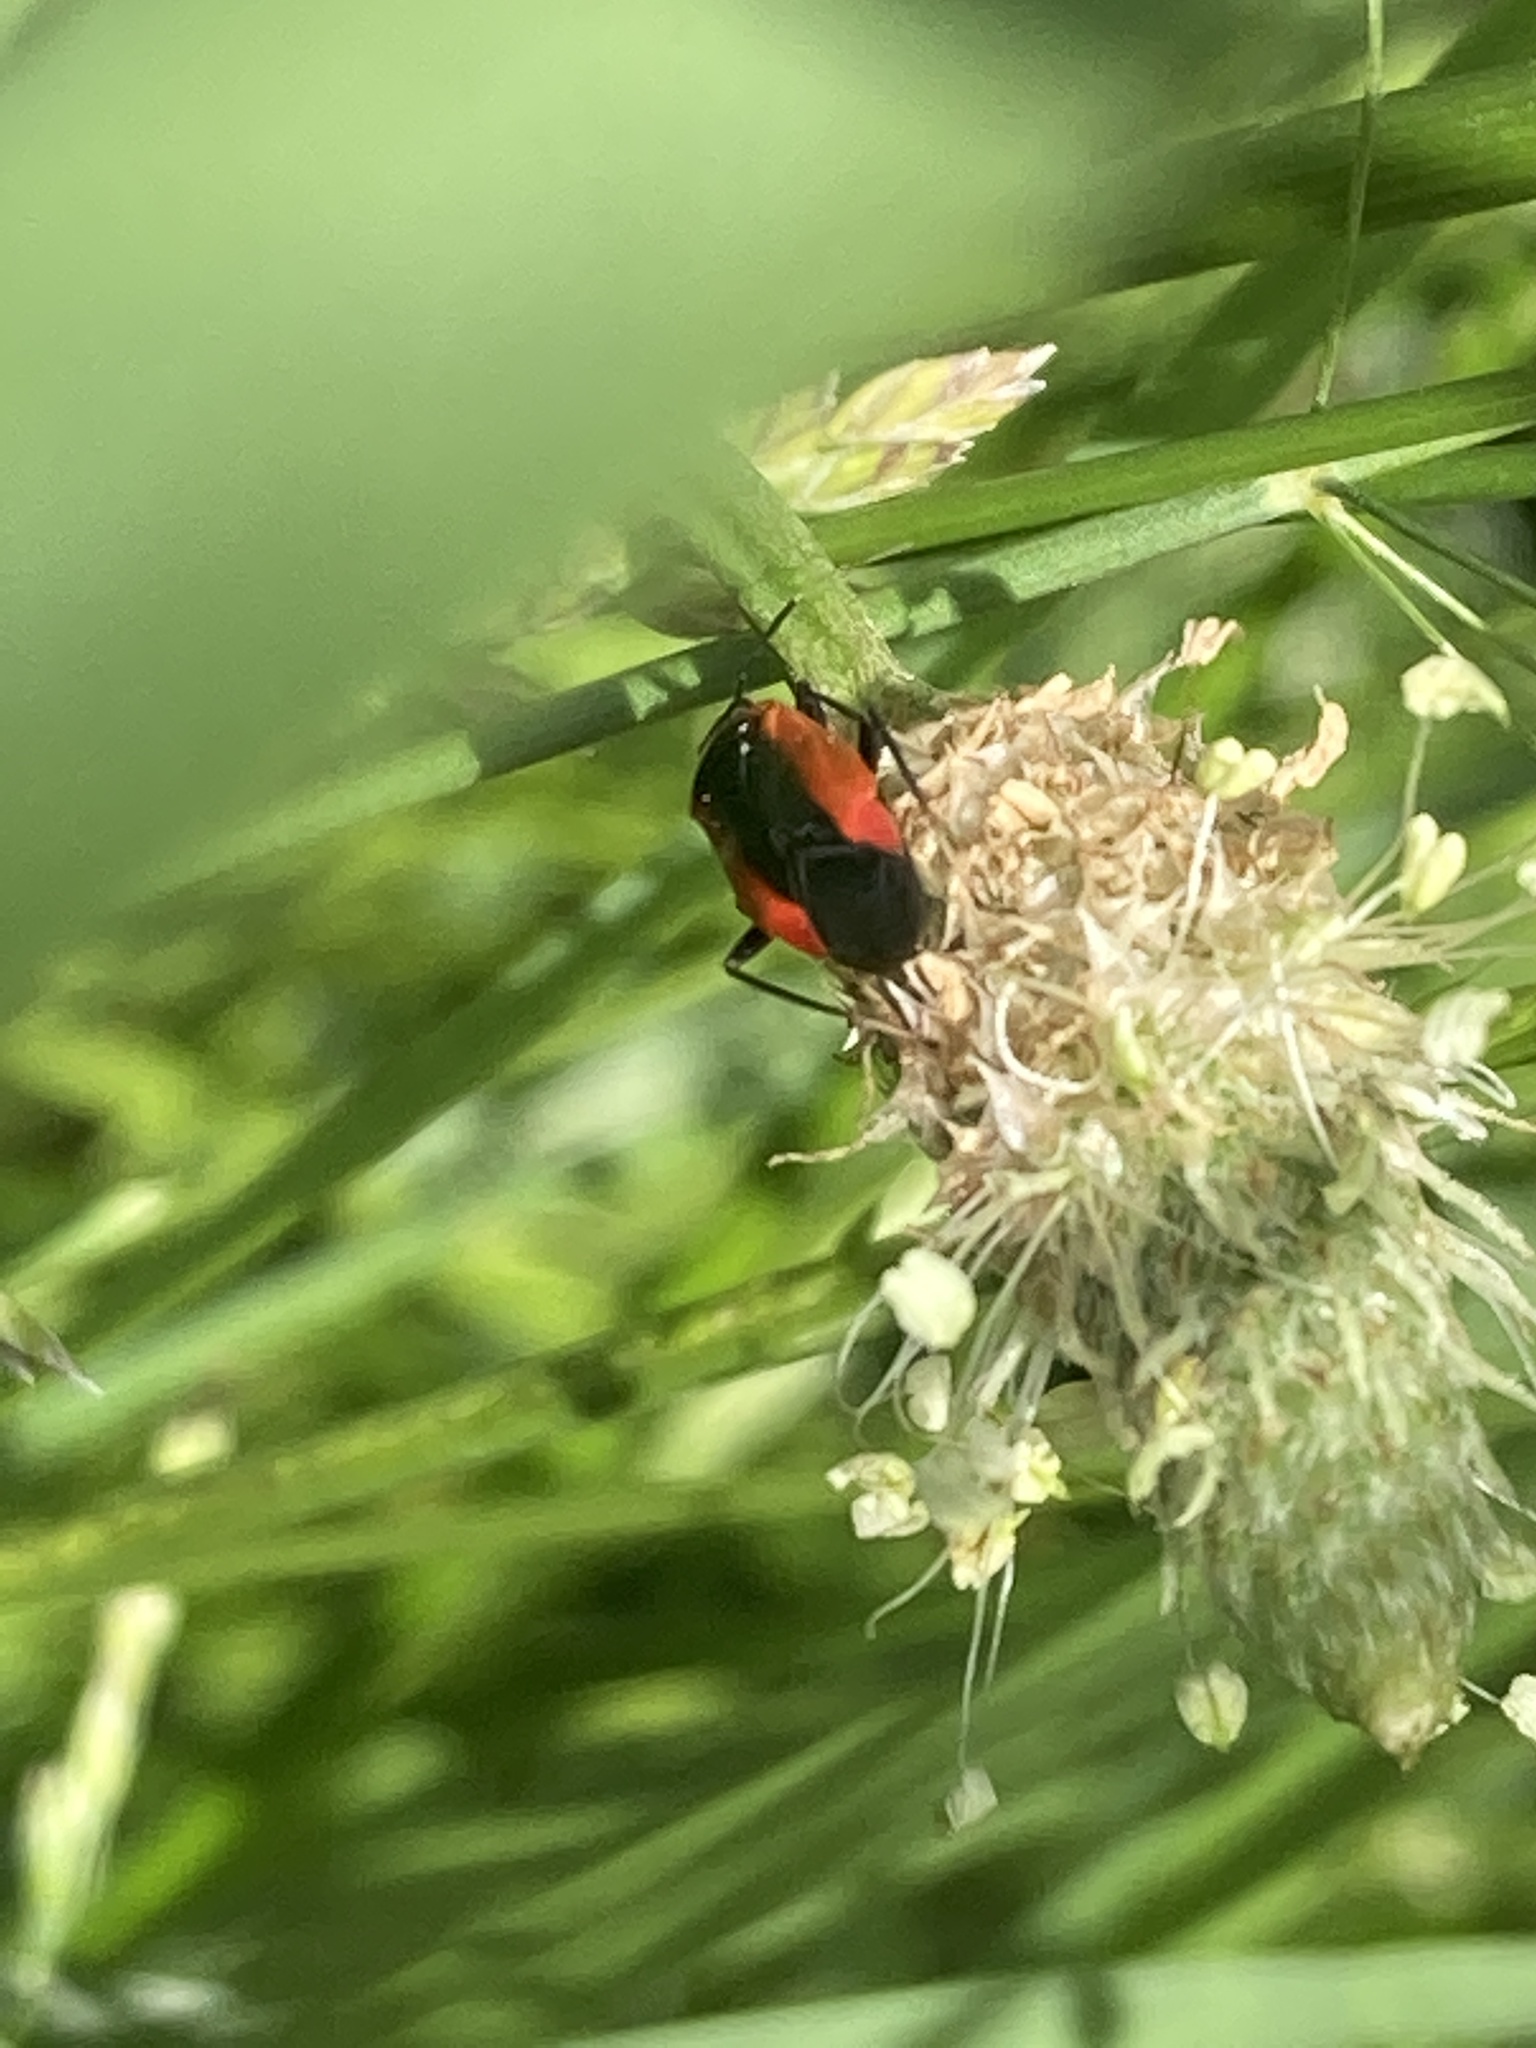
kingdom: Animalia
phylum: Arthropoda
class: Insecta
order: Hemiptera
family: Miridae
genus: Metriorrhynchomiris
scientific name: Metriorrhynchomiris dislocatus
